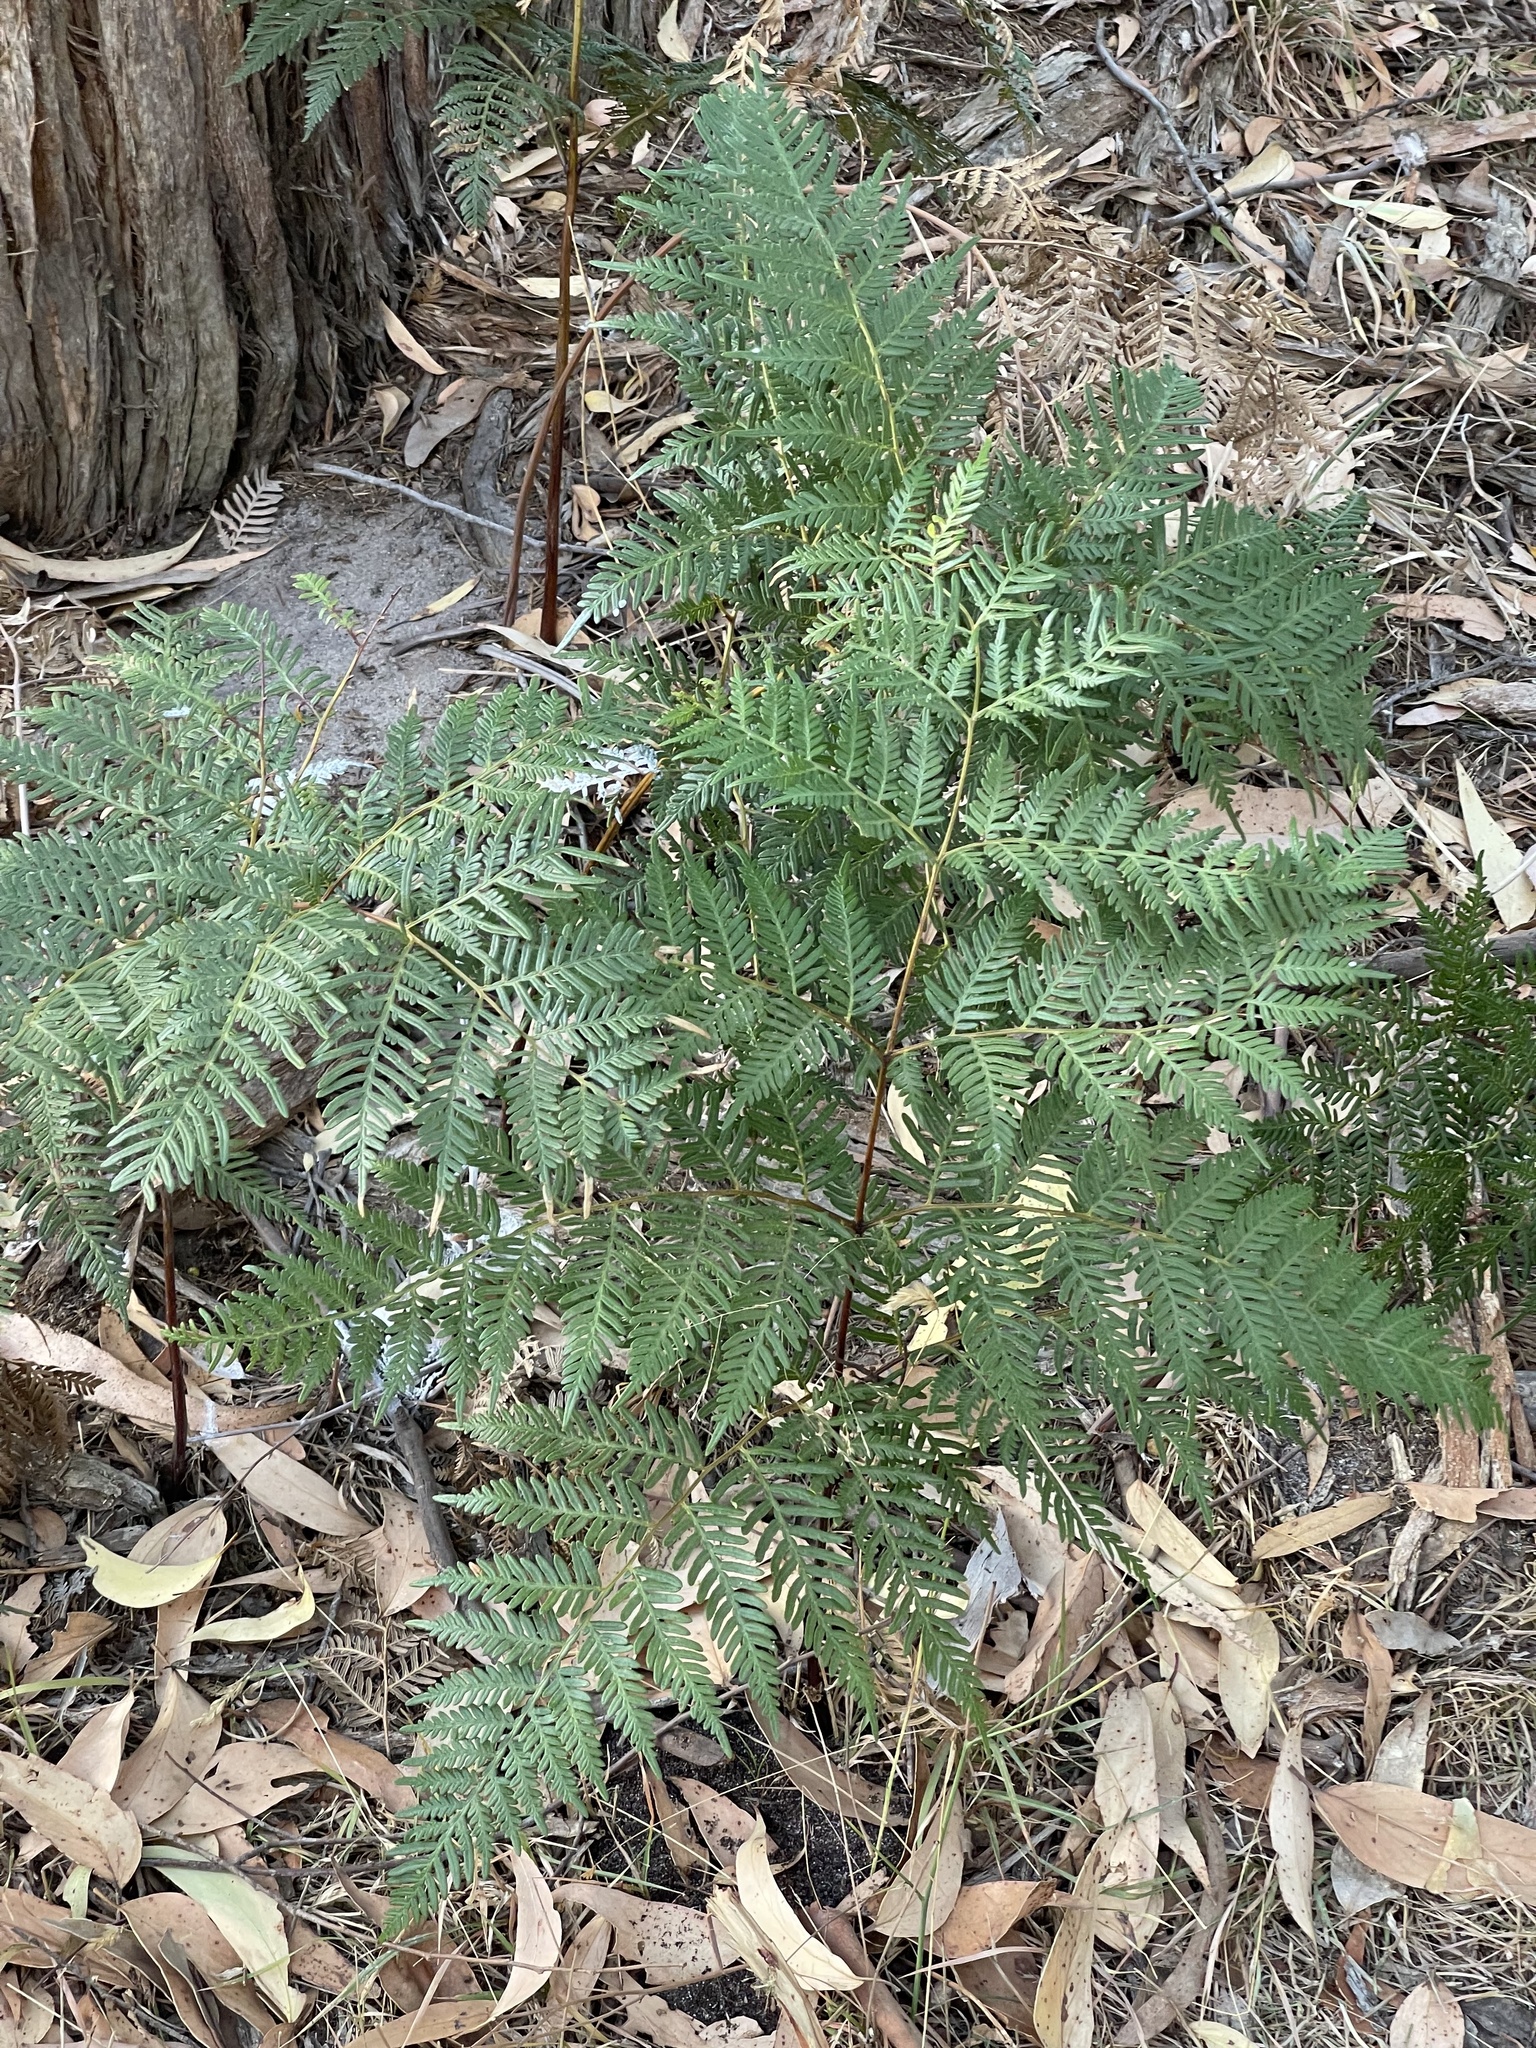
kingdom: Plantae
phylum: Tracheophyta
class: Polypodiopsida
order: Polypodiales
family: Dennstaedtiaceae
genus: Pteridium
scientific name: Pteridium esculentum
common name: Bracken fern
